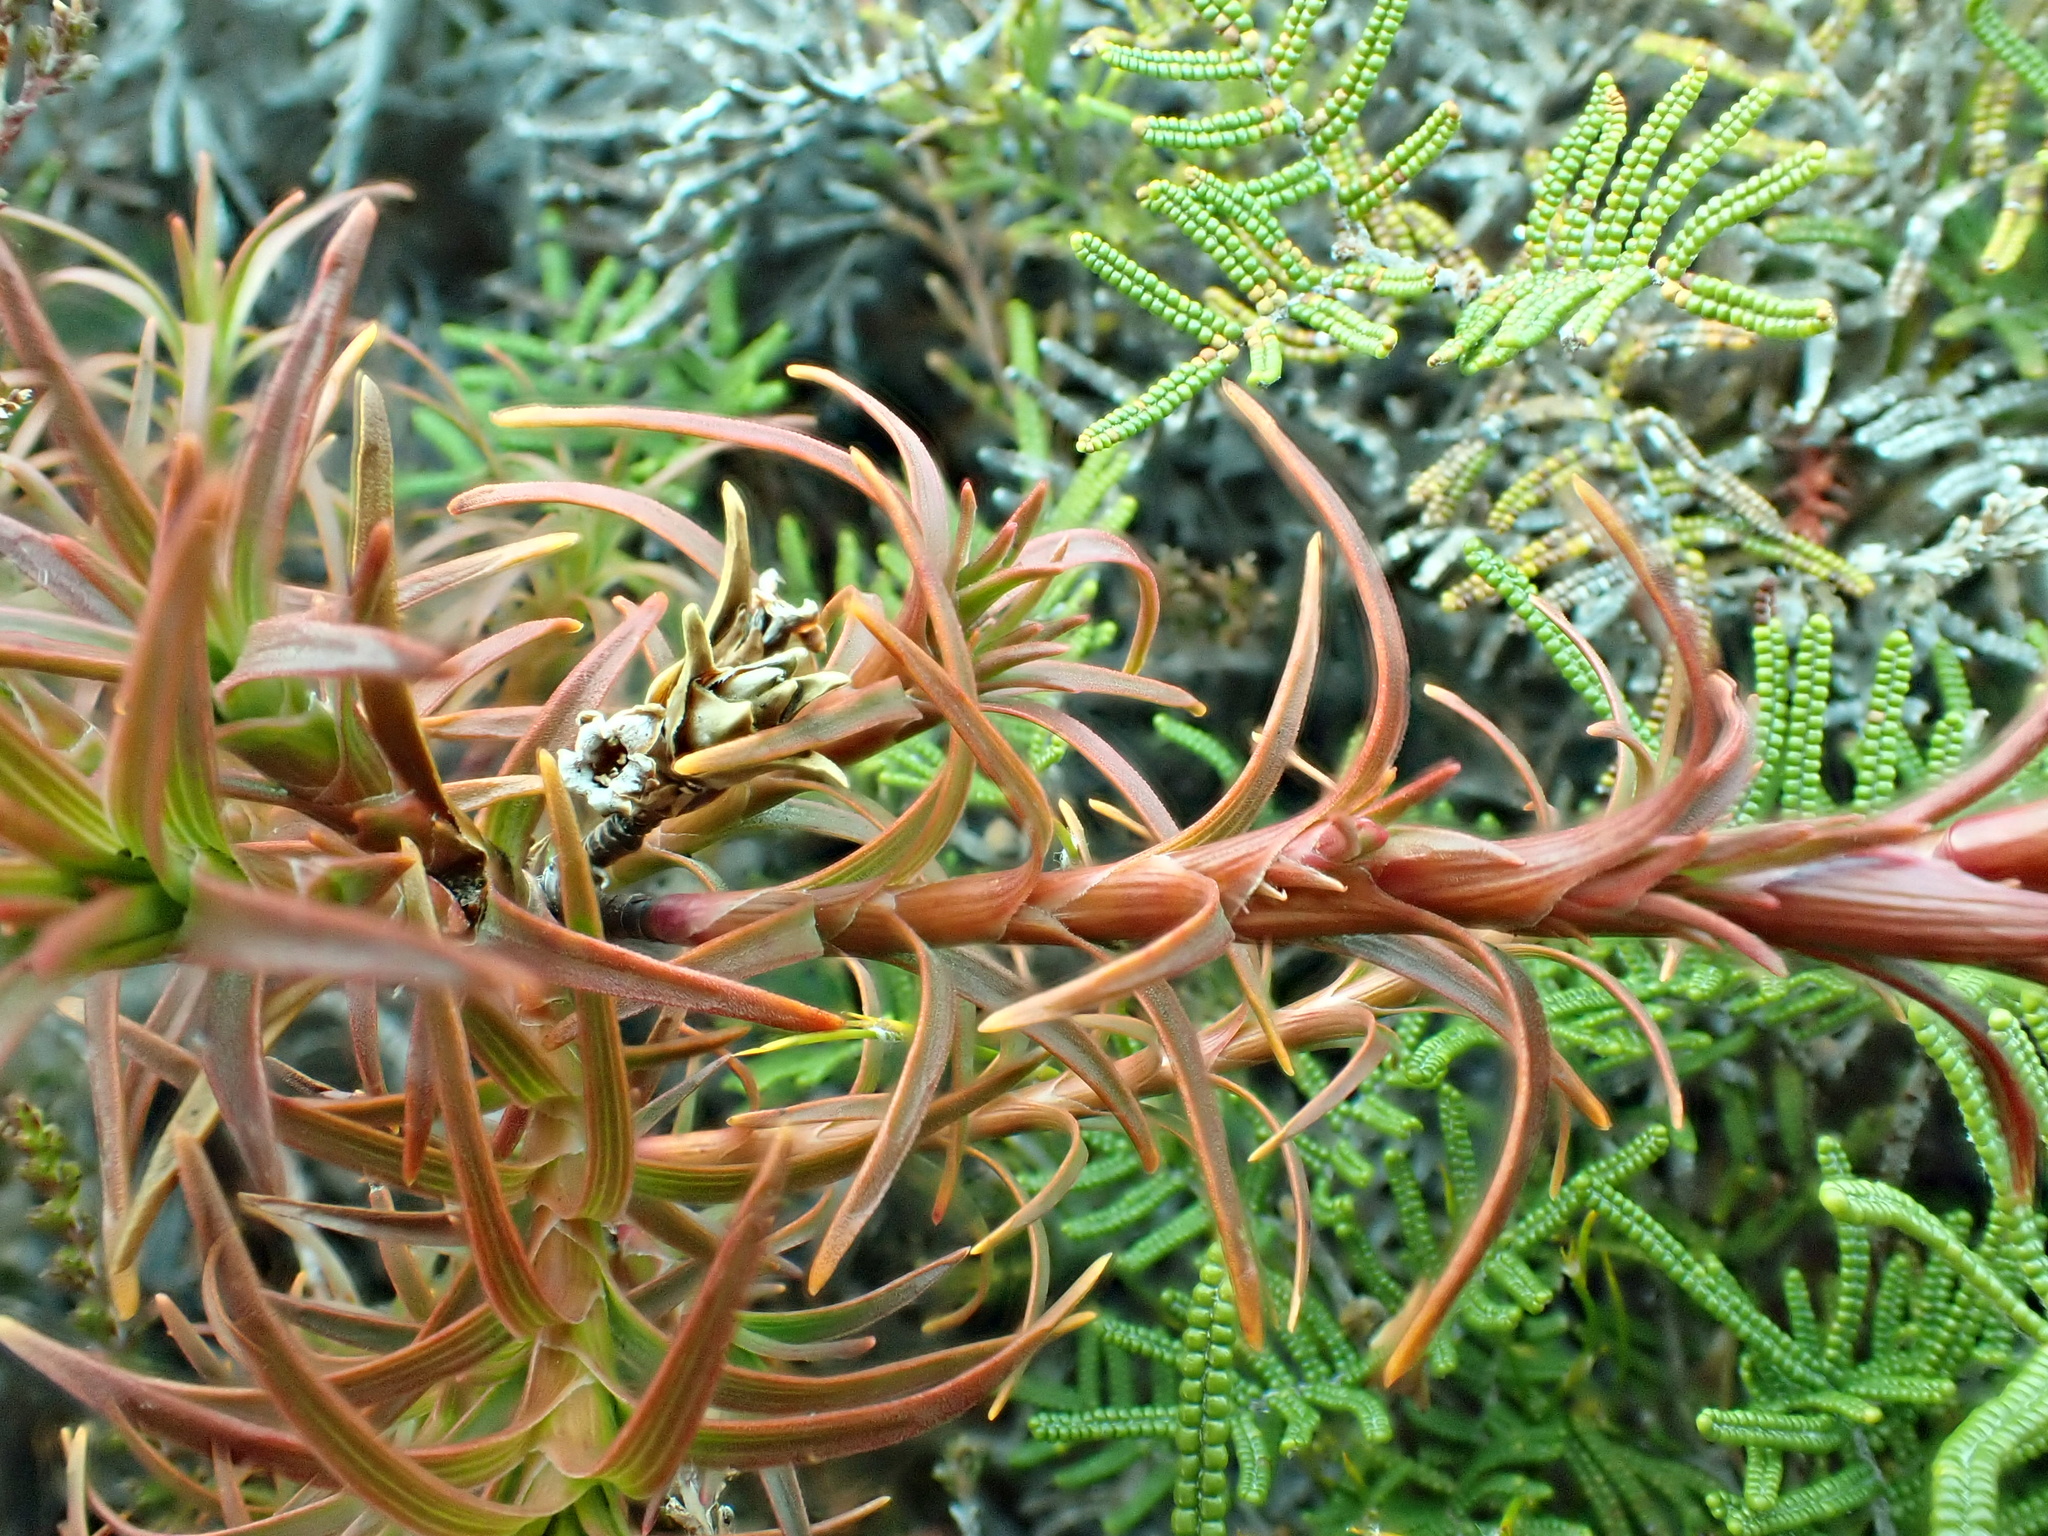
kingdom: Plantae
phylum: Tracheophyta
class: Magnoliopsida
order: Ericales
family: Ericaceae
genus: Dracophyllum
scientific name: Dracophyllum recurvum
